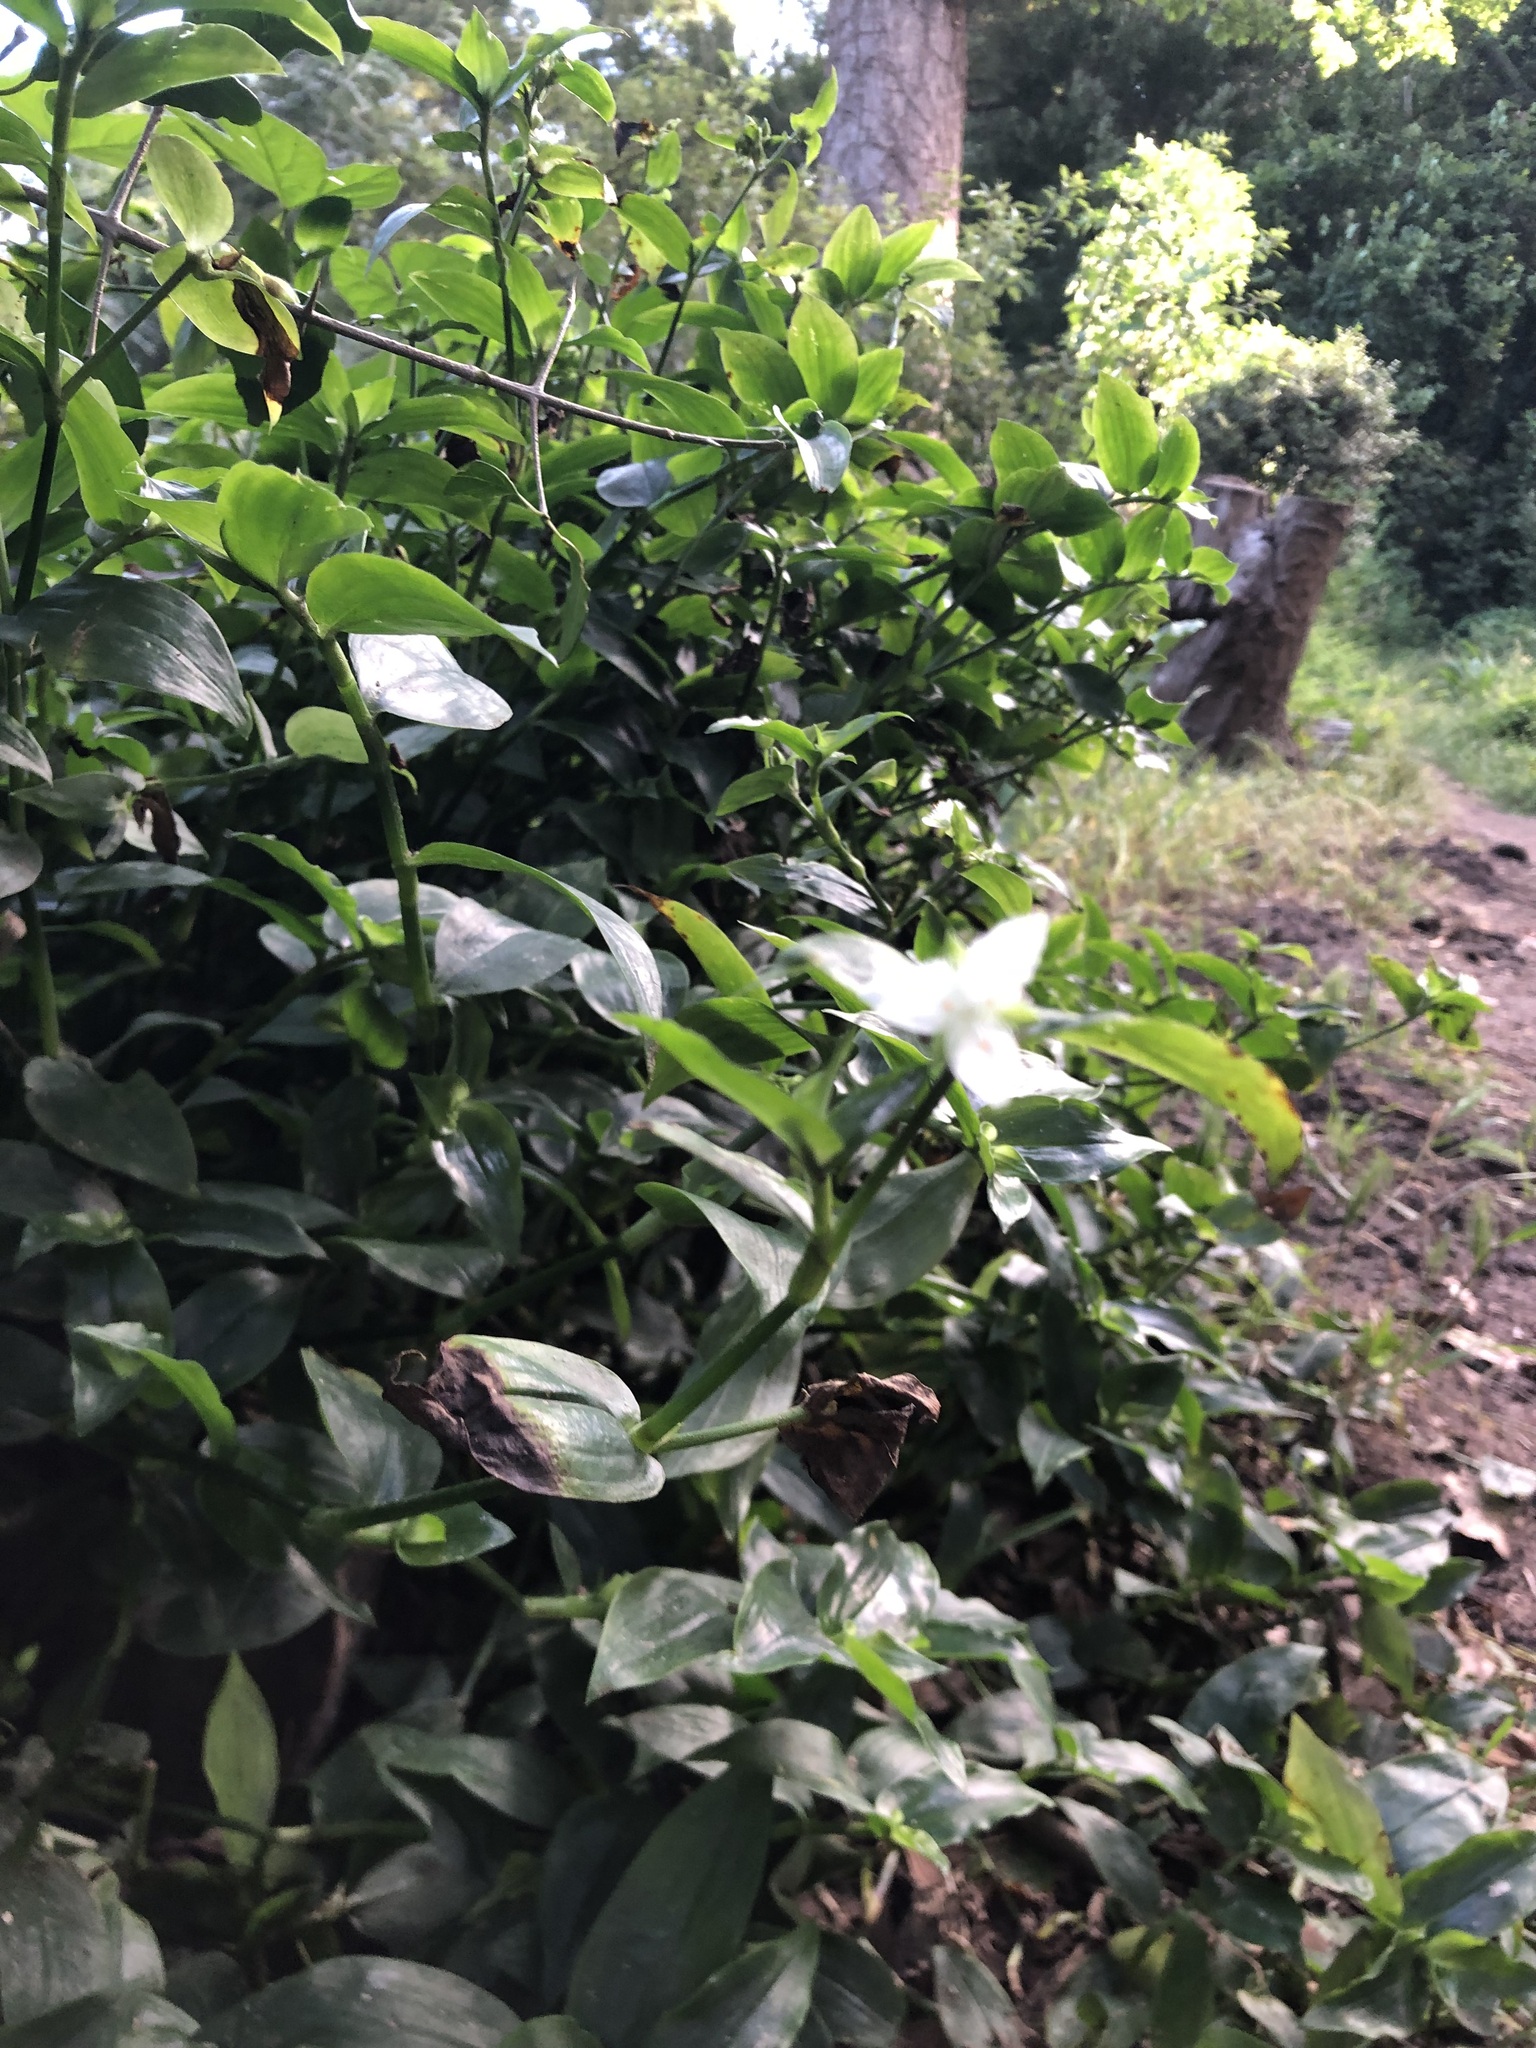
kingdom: Plantae
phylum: Tracheophyta
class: Liliopsida
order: Commelinales
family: Commelinaceae
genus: Tradescantia
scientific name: Tradescantia fluminensis
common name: Wandering-jew
